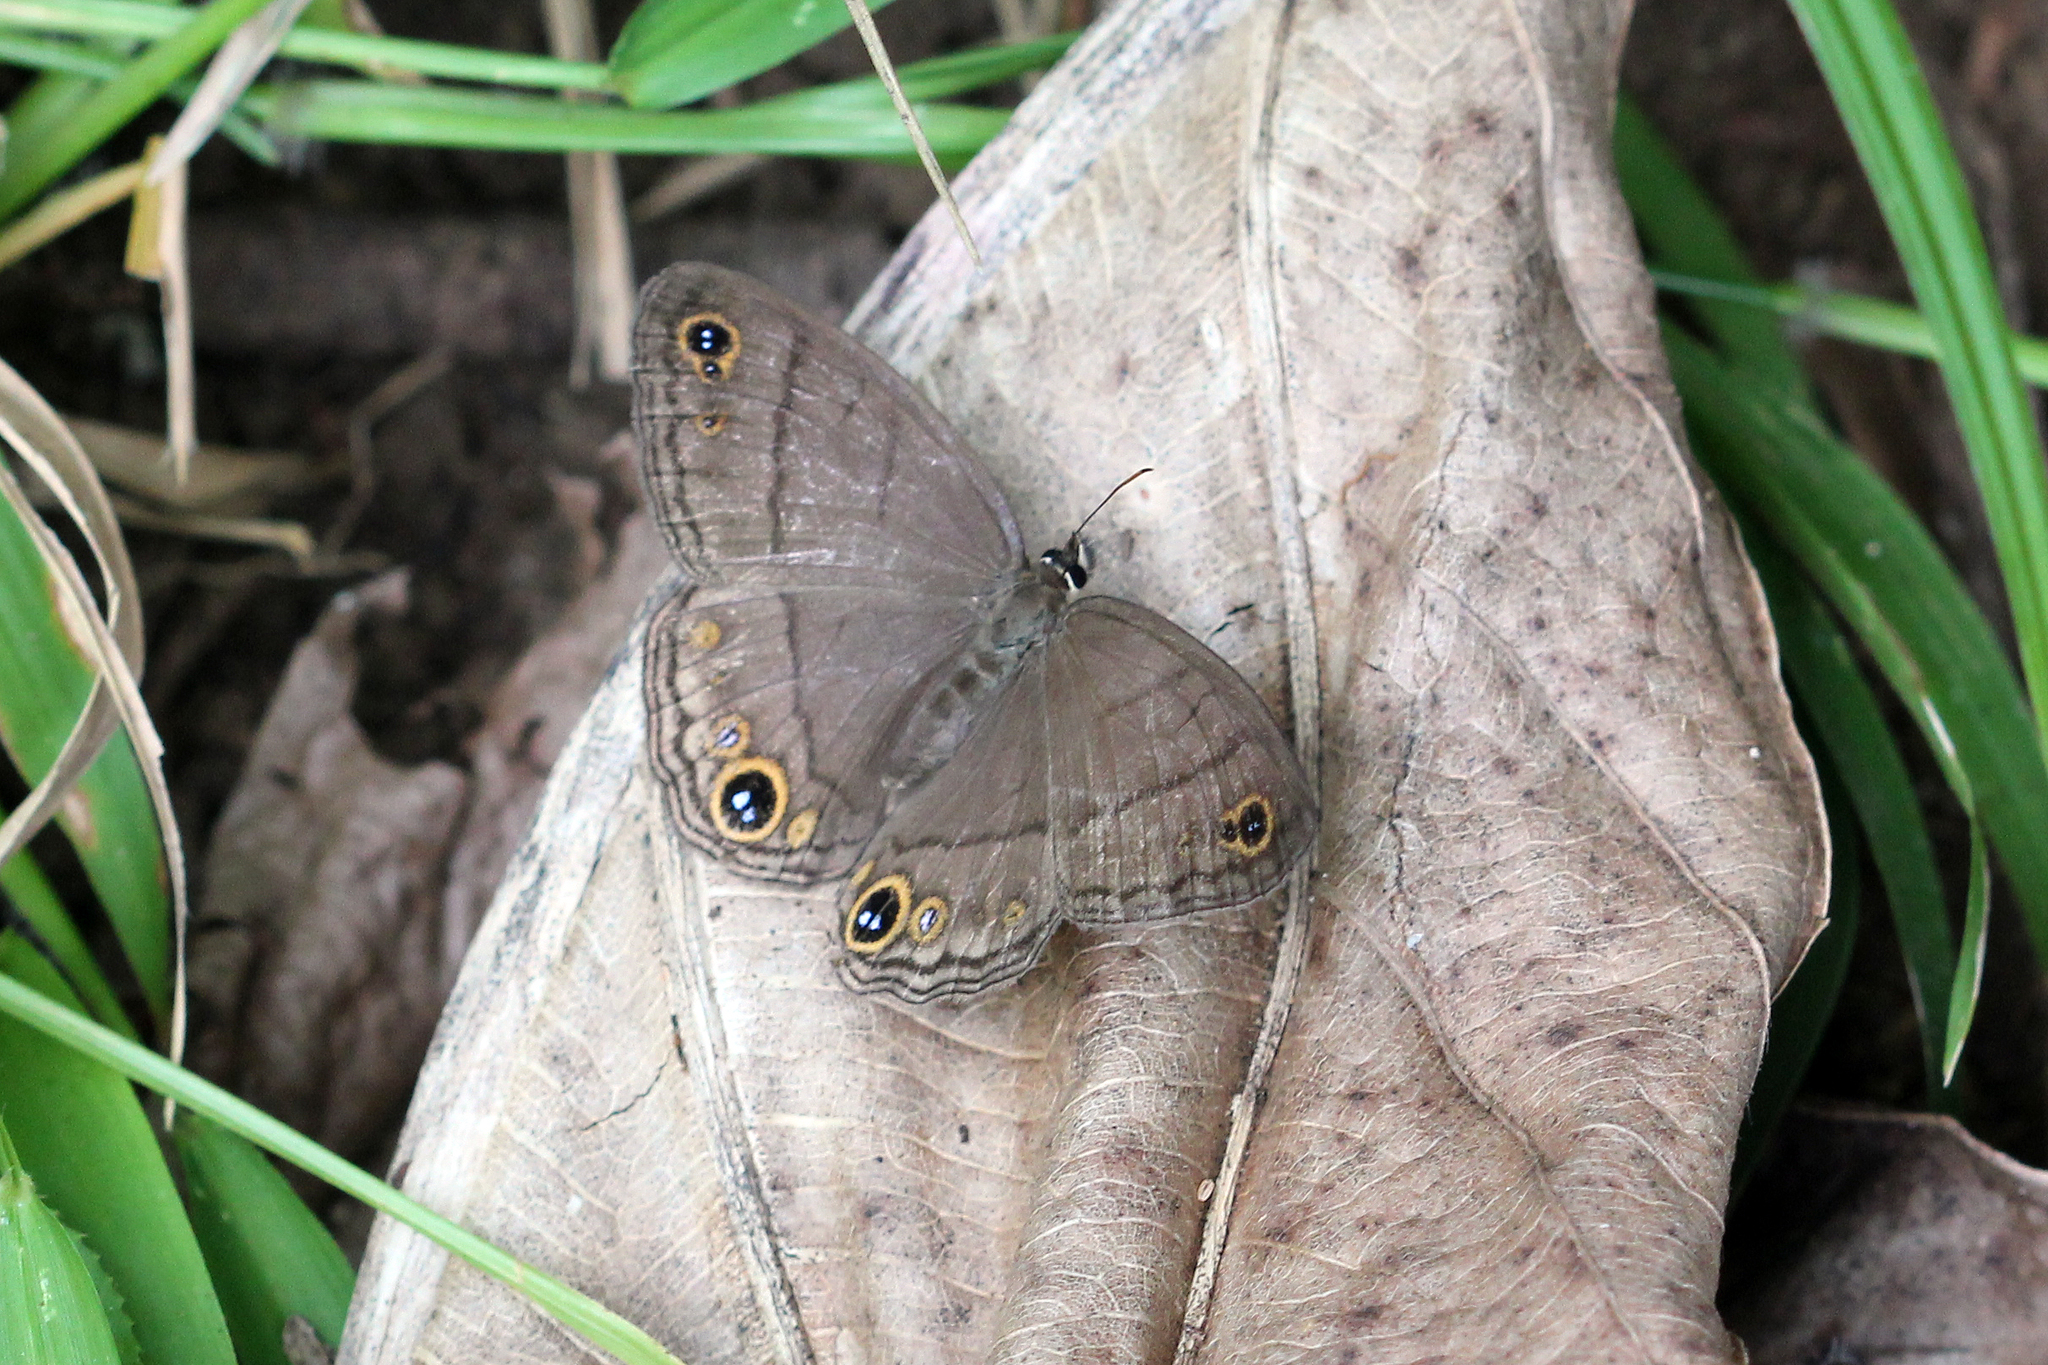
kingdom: Animalia
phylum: Arthropoda
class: Insecta
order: Lepidoptera
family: Nymphalidae
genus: Euptychia
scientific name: Euptychia Cissia pompilia
